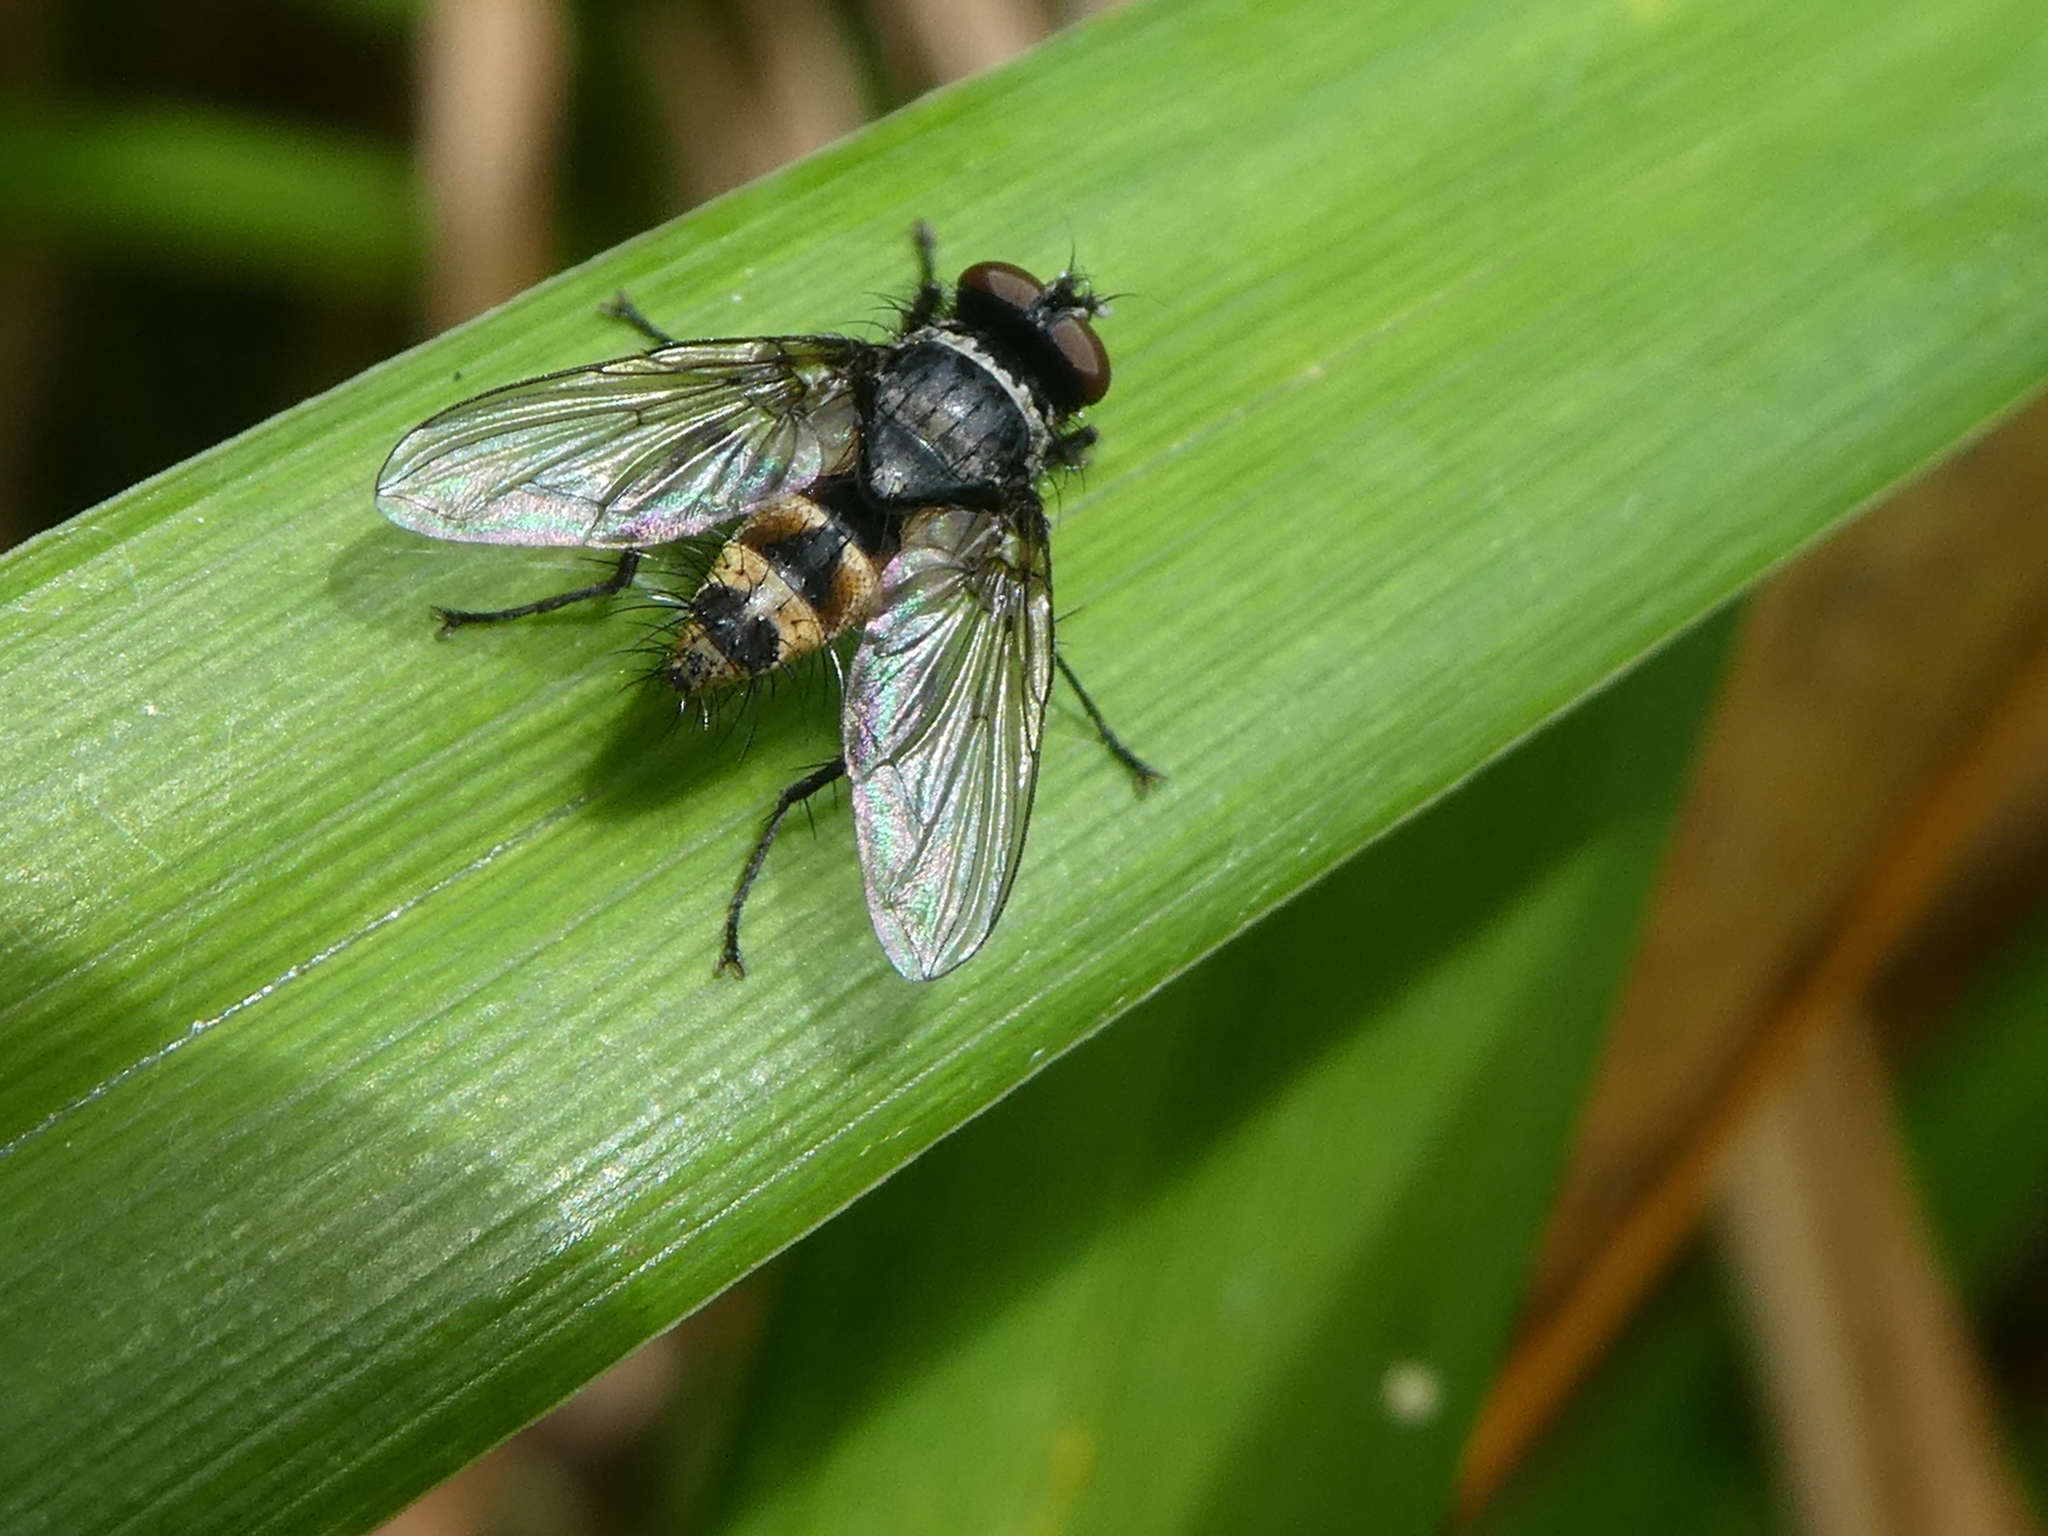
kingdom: Animalia
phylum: Arthropoda
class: Insecta
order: Diptera
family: Tachinidae
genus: Trigonospila
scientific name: Trigonospila brevifacies
